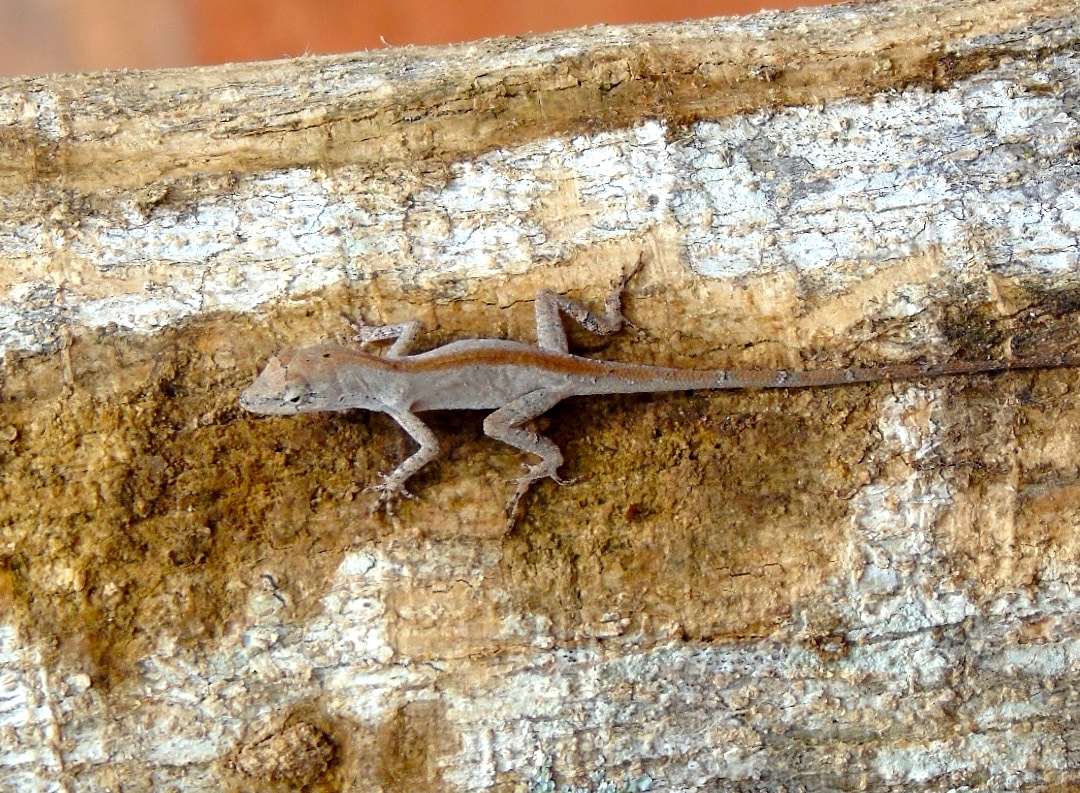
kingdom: Animalia
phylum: Chordata
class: Squamata
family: Dactyloidae
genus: Anolis
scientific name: Anolis nebulosus
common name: Clouded anole
